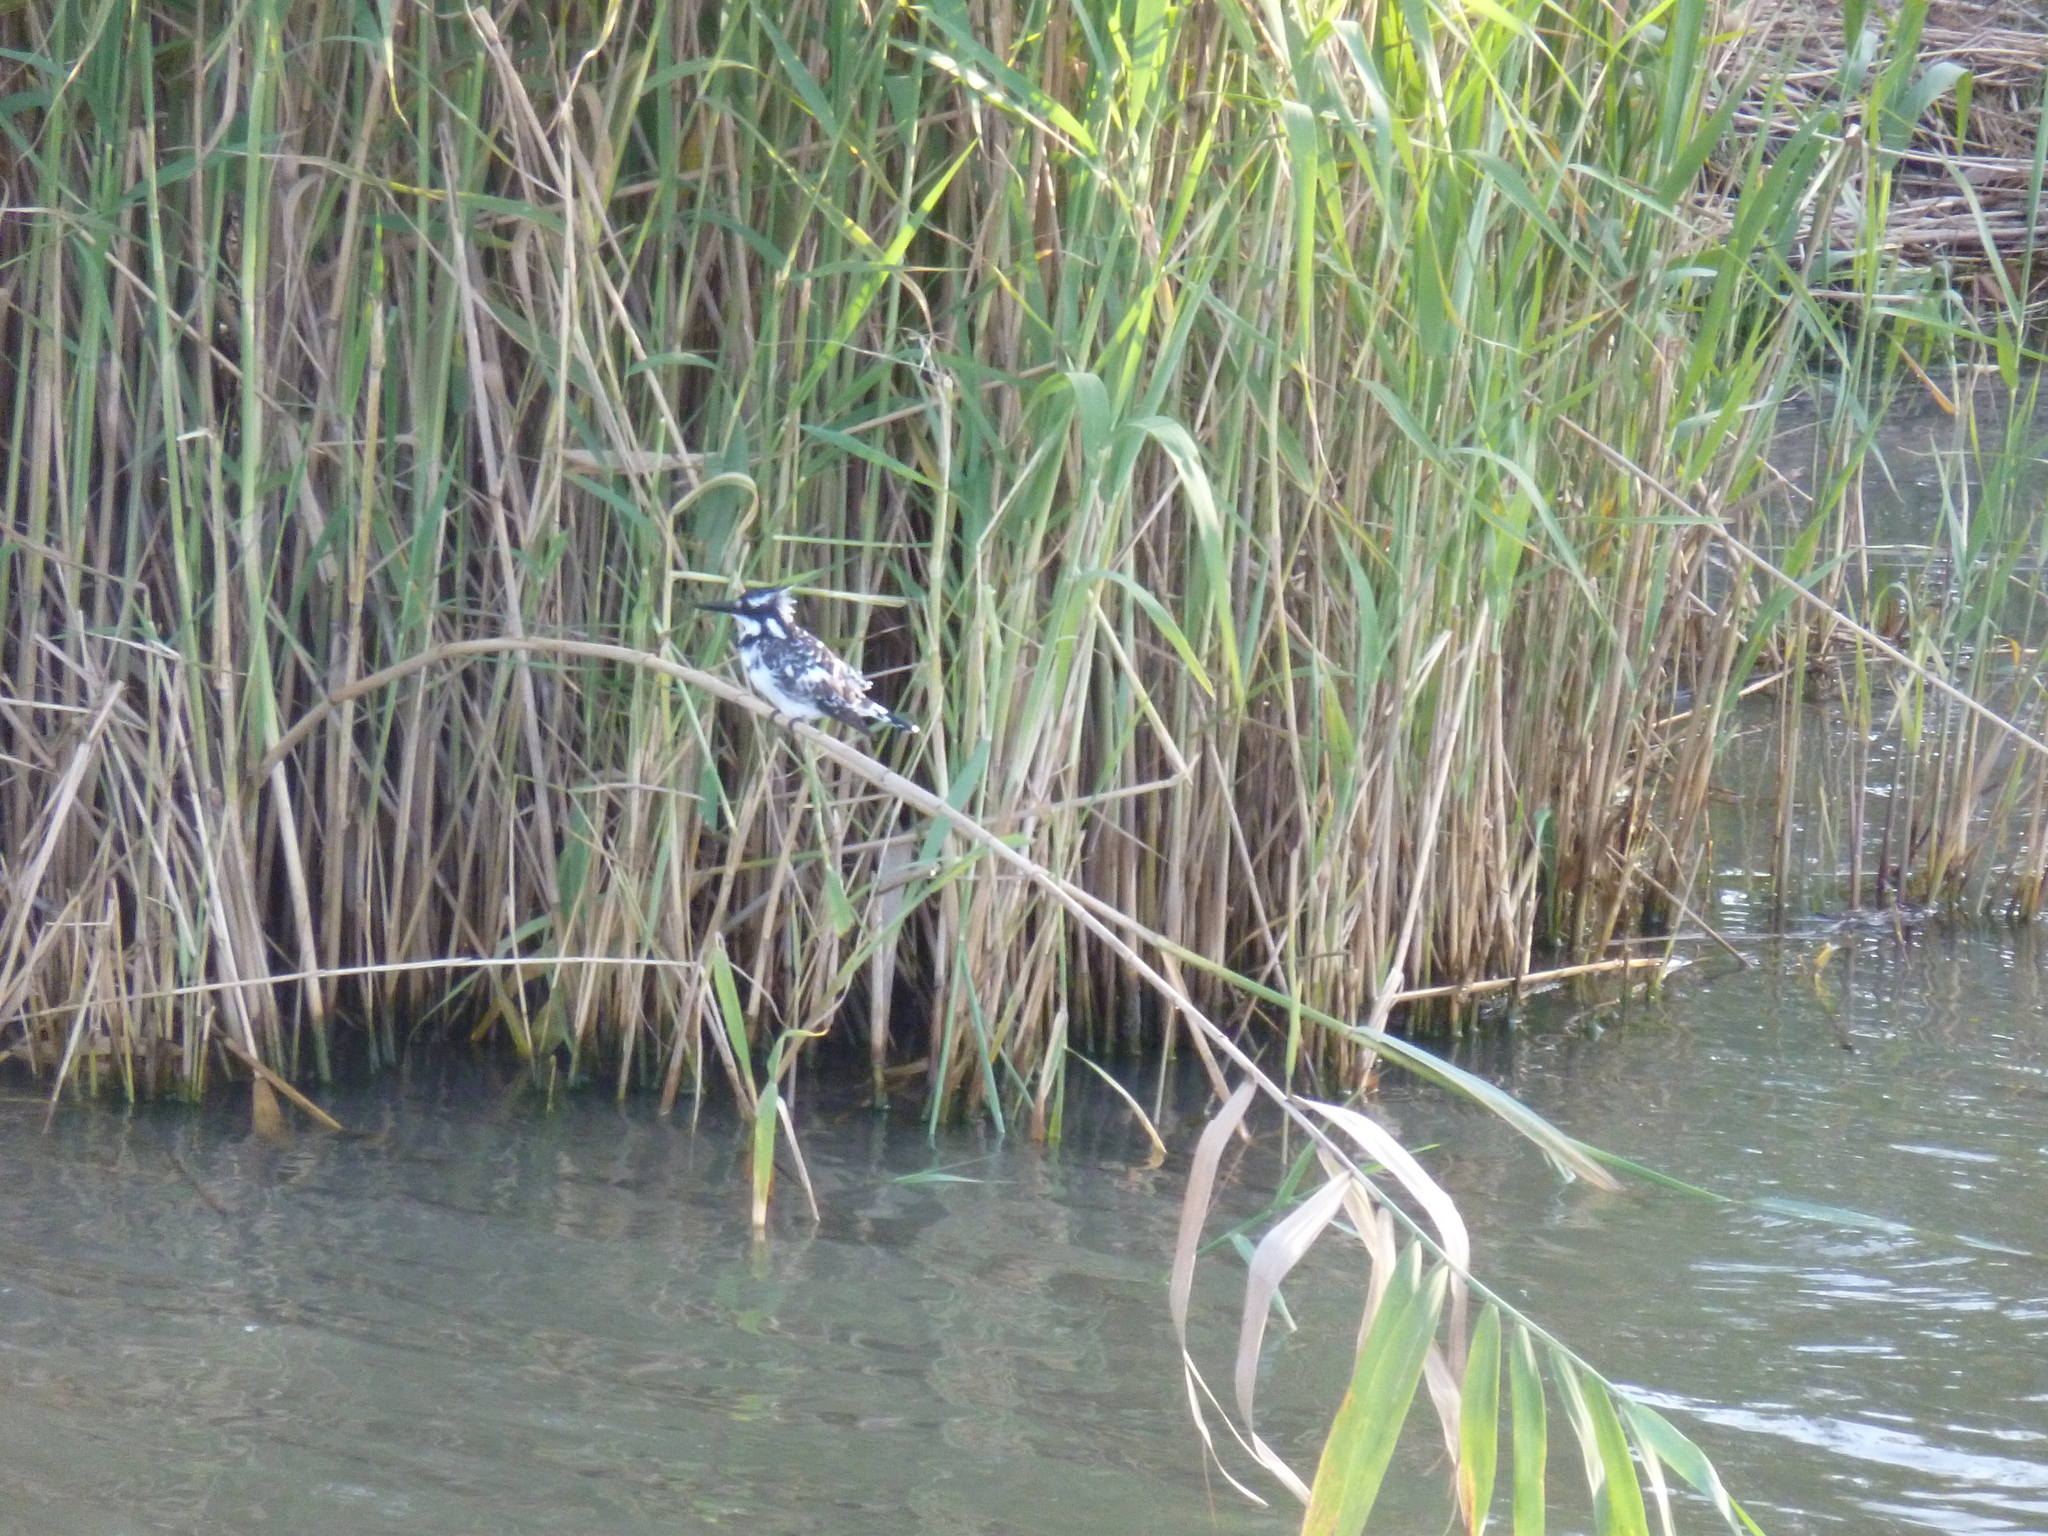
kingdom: Animalia
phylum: Chordata
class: Aves
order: Coraciiformes
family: Alcedinidae
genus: Ceryle
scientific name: Ceryle rudis
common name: Pied kingfisher
